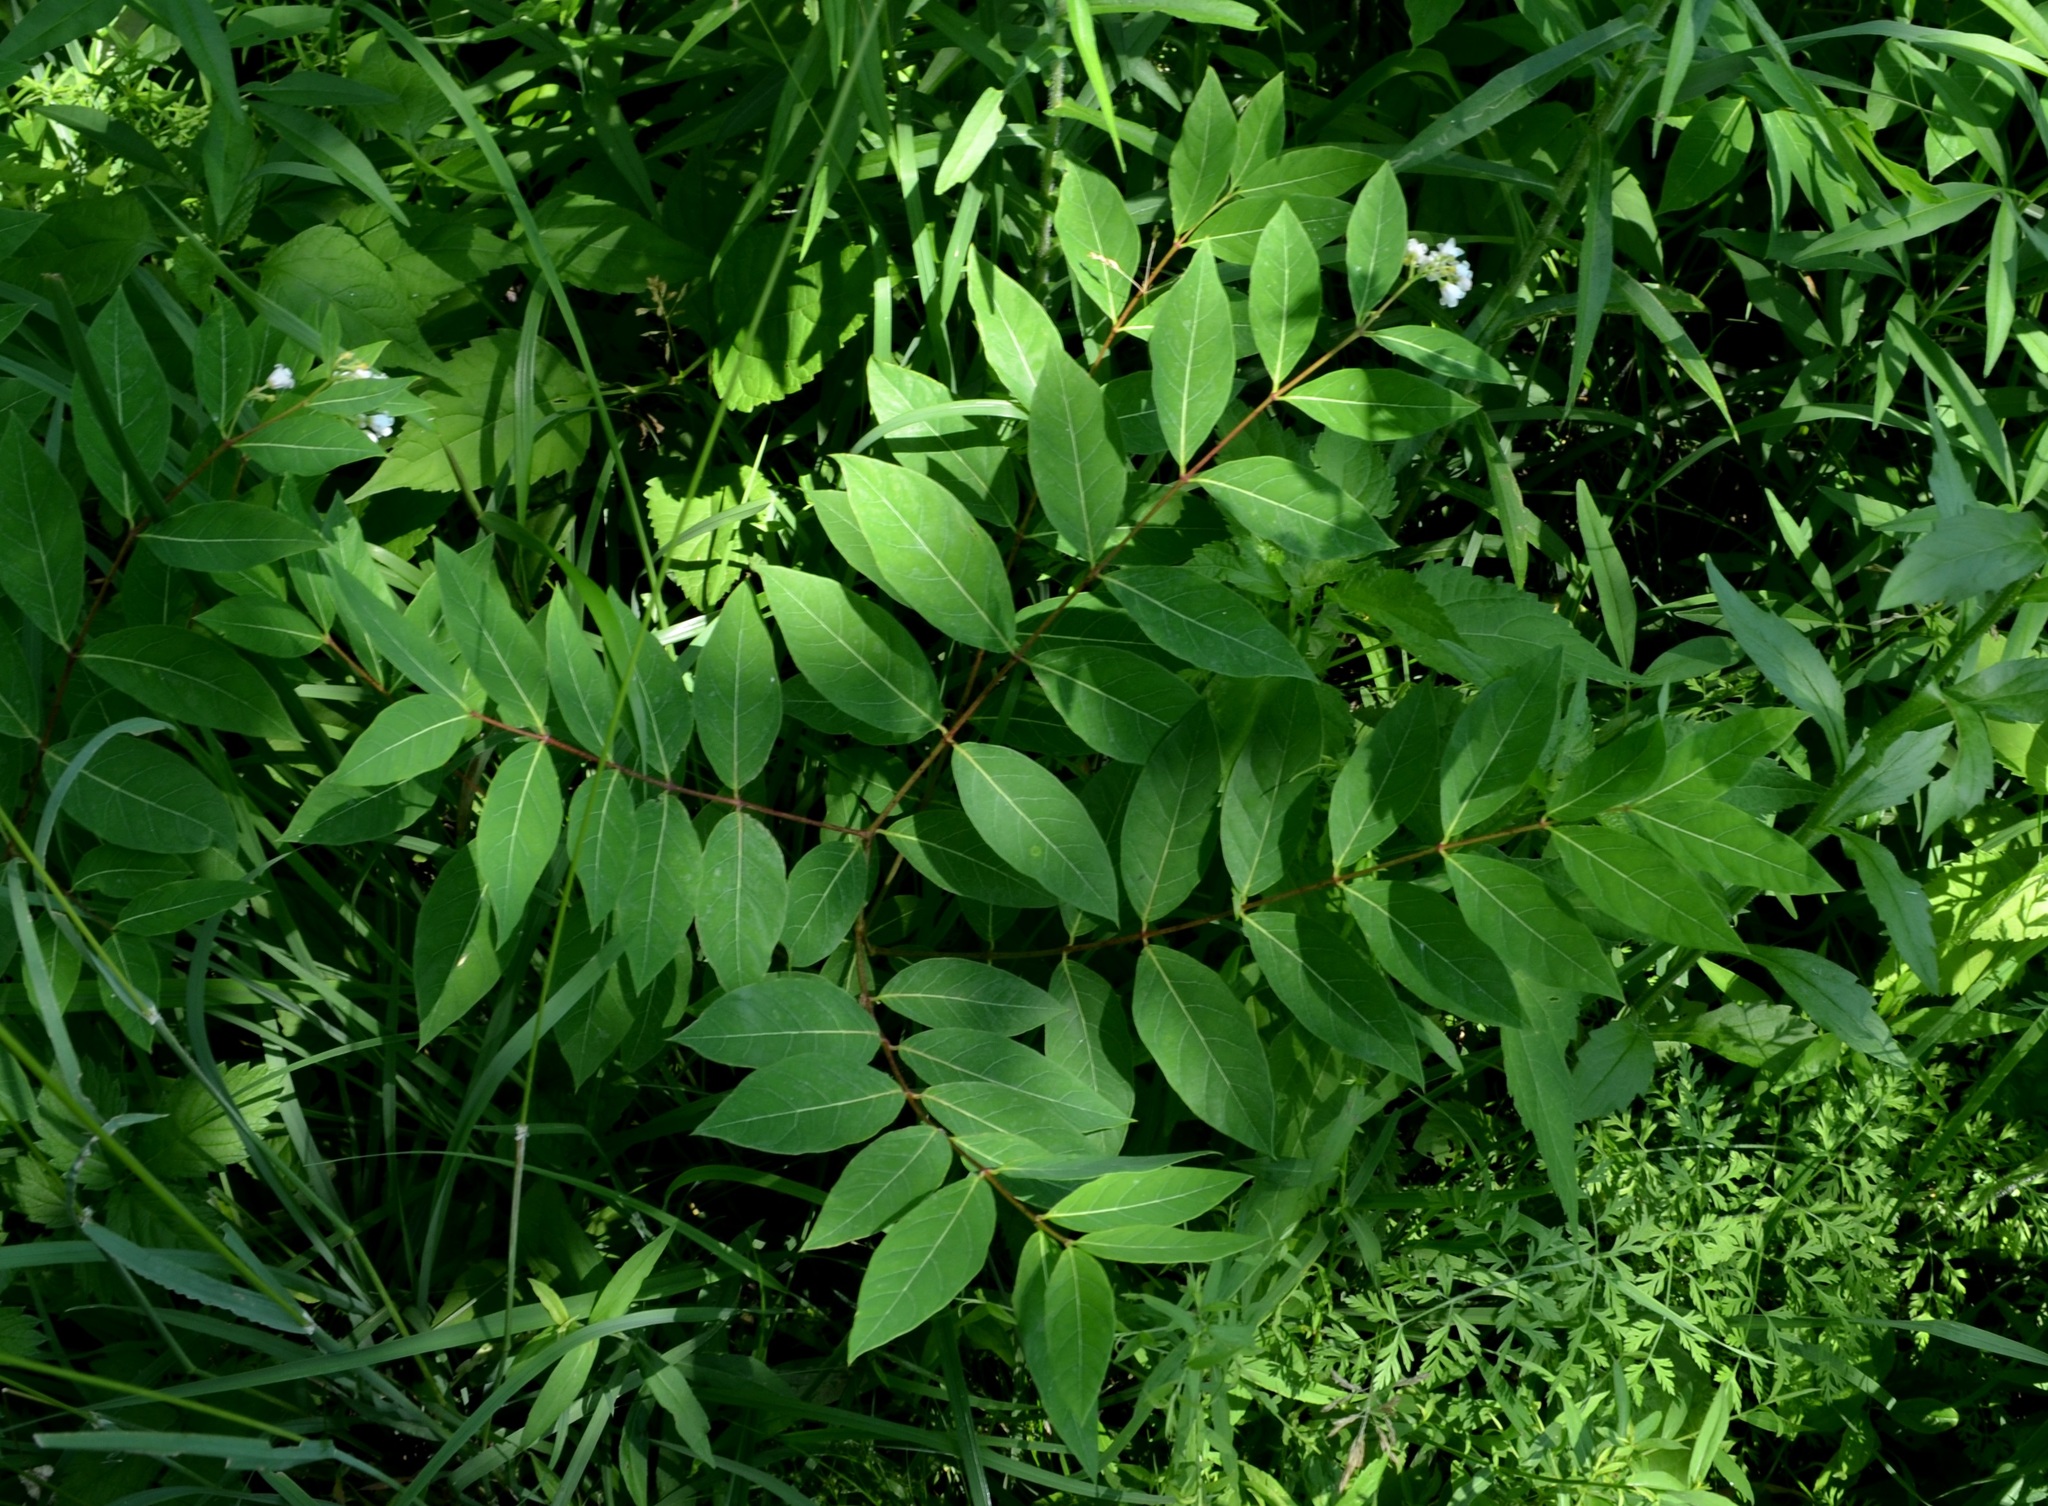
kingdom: Plantae
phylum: Tracheophyta
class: Magnoliopsida
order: Gentianales
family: Apocynaceae
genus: Apocynum
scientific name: Apocynum androsaemifolium
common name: Spreading dogbane
